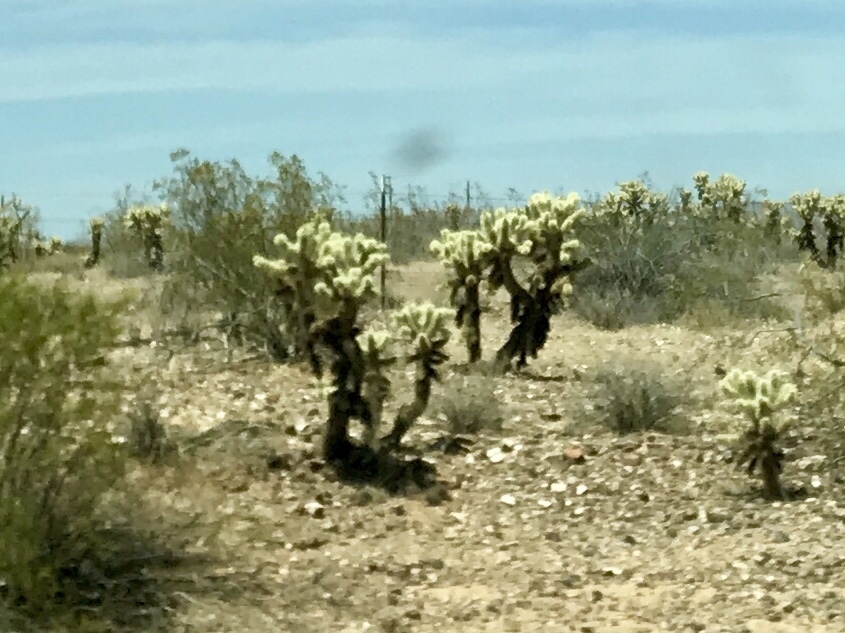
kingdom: Plantae
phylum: Tracheophyta
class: Magnoliopsida
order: Caryophyllales
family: Cactaceae
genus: Cylindropuntia
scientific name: Cylindropuntia fosbergii
